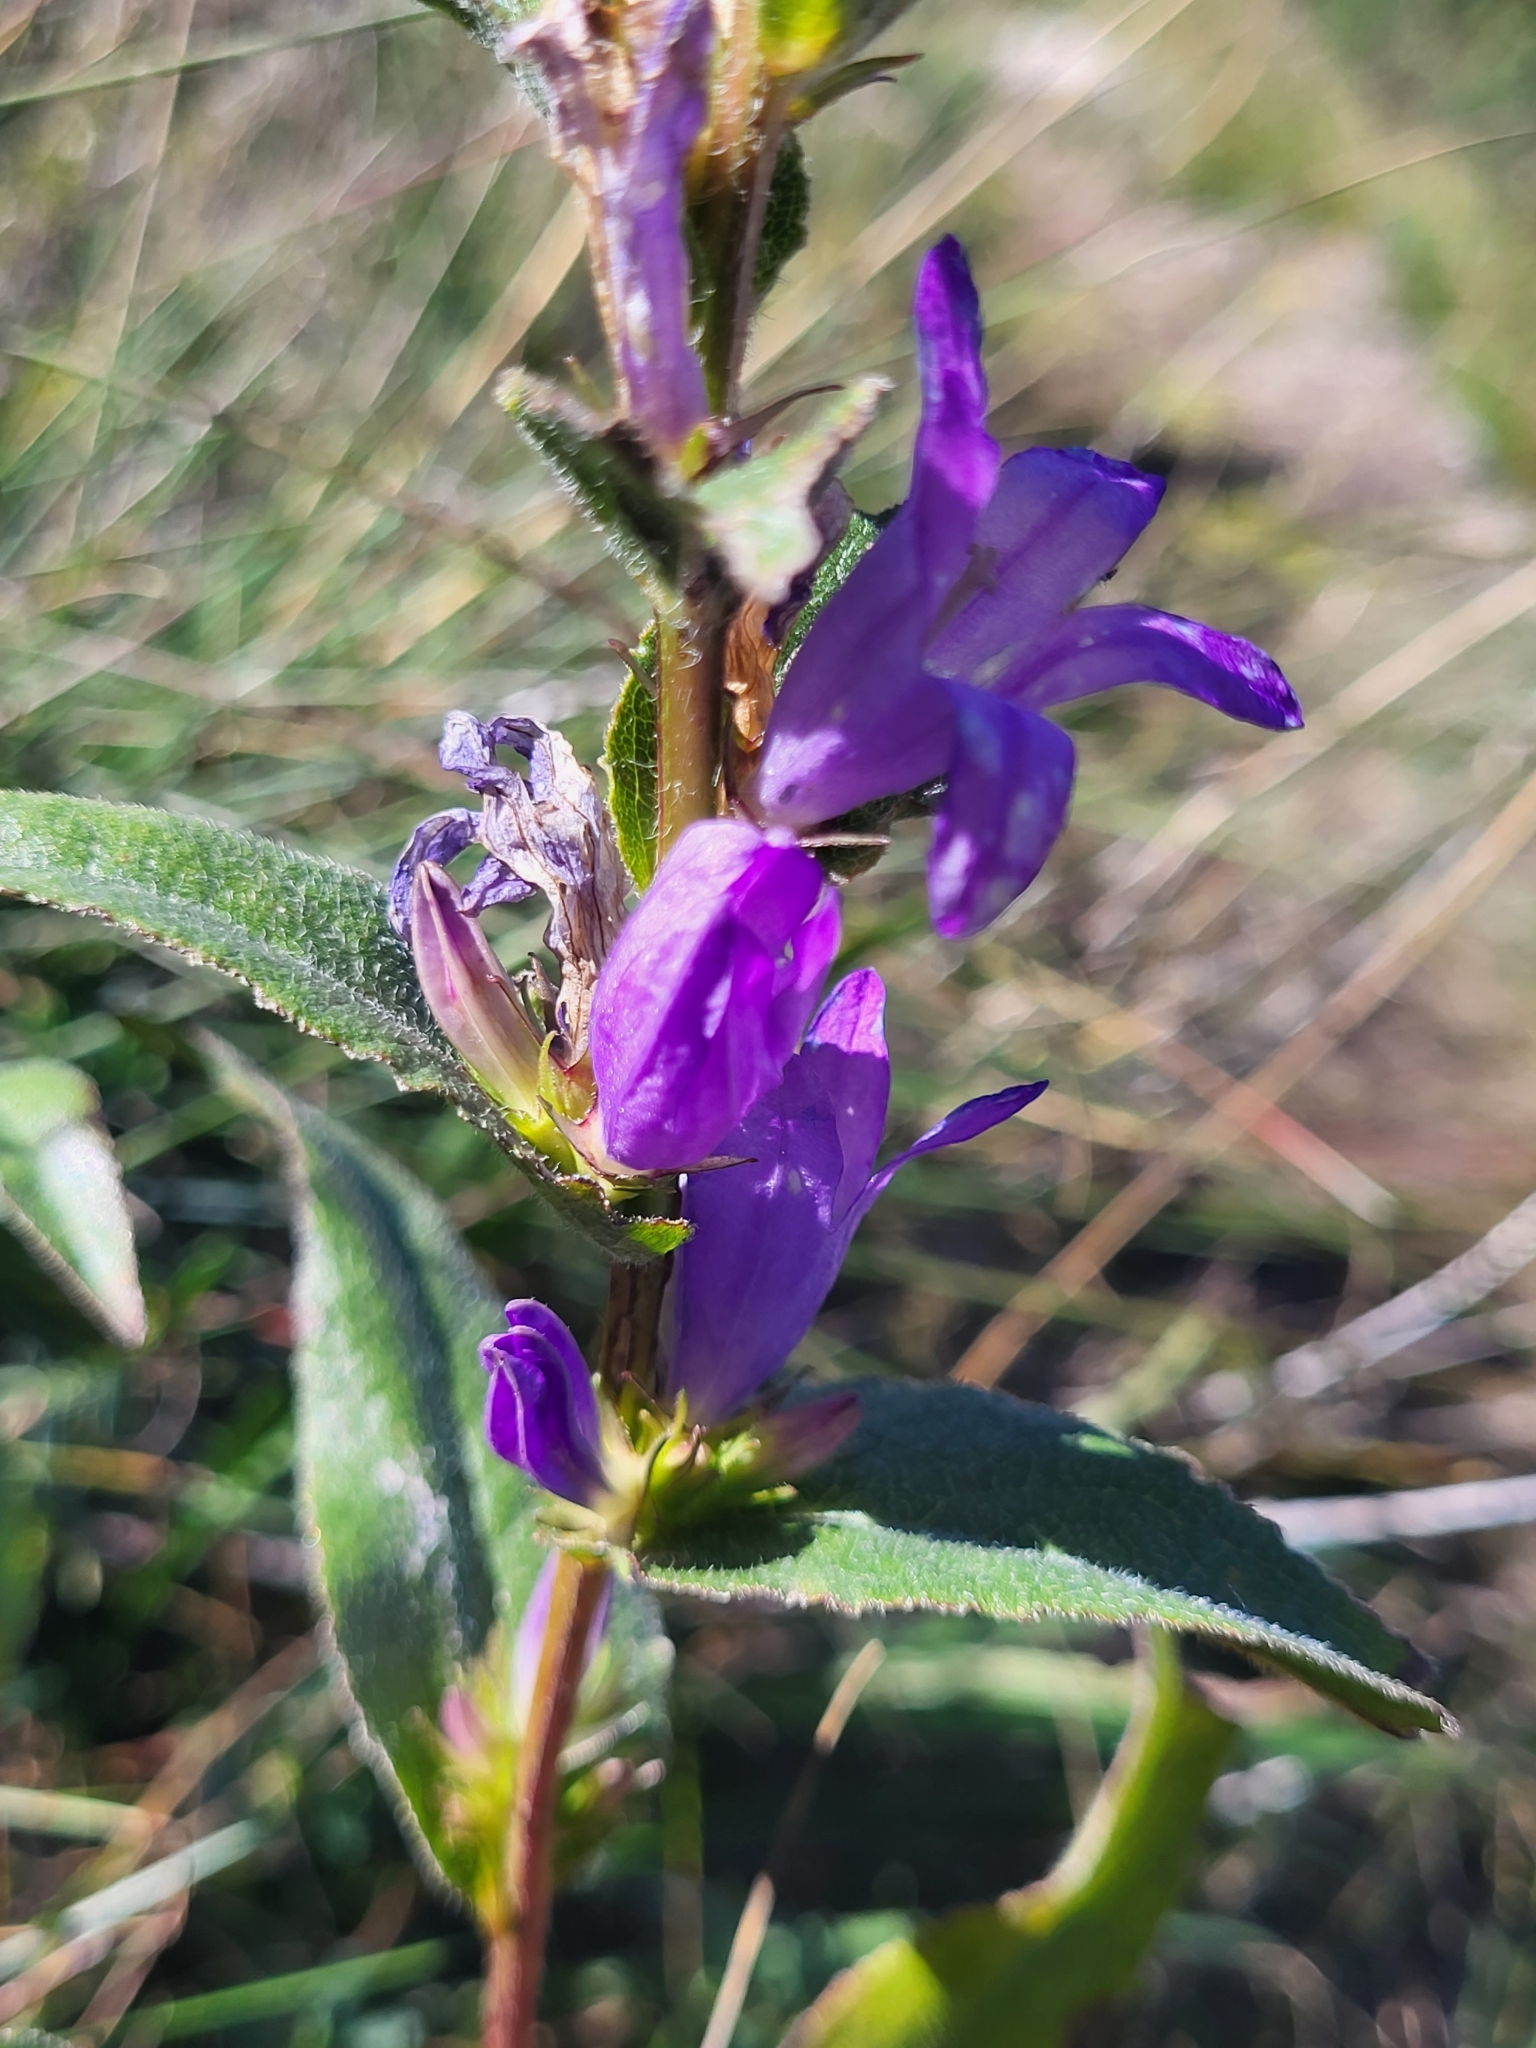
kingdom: Plantae
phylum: Tracheophyta
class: Magnoliopsida
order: Asterales
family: Campanulaceae
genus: Campanula
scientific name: Campanula glomerata
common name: Clustered bellflower
